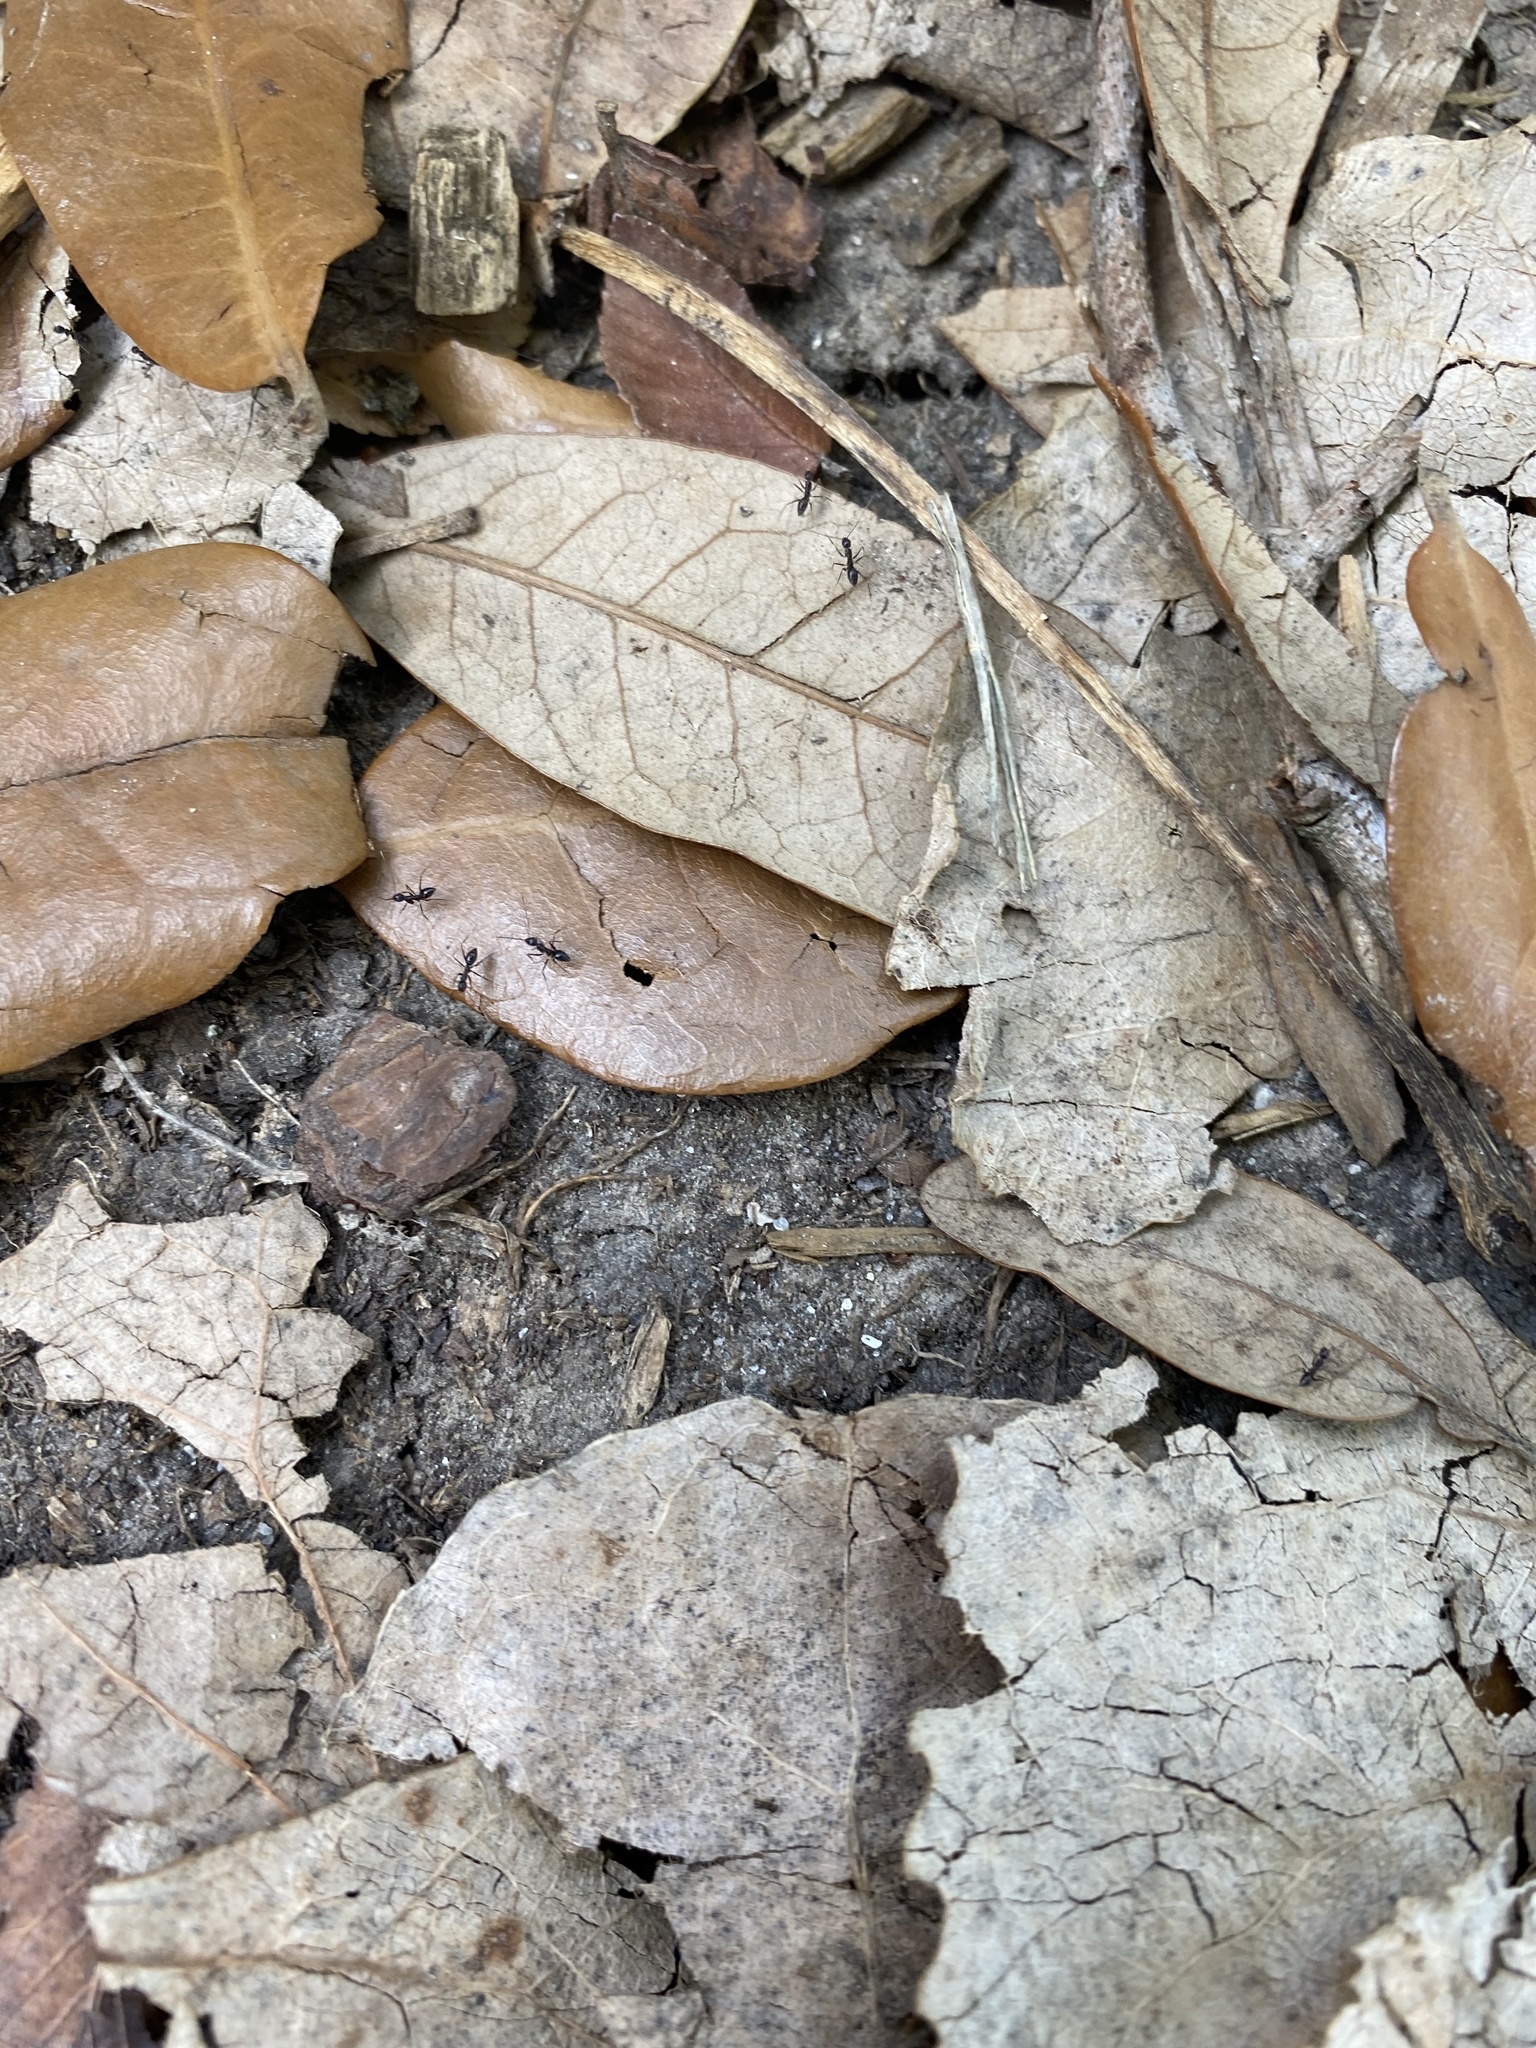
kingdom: Animalia
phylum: Arthropoda
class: Insecta
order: Hymenoptera
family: Formicidae
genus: Paratrechina
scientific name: Paratrechina longicornis
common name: Longhorned crazy ant
